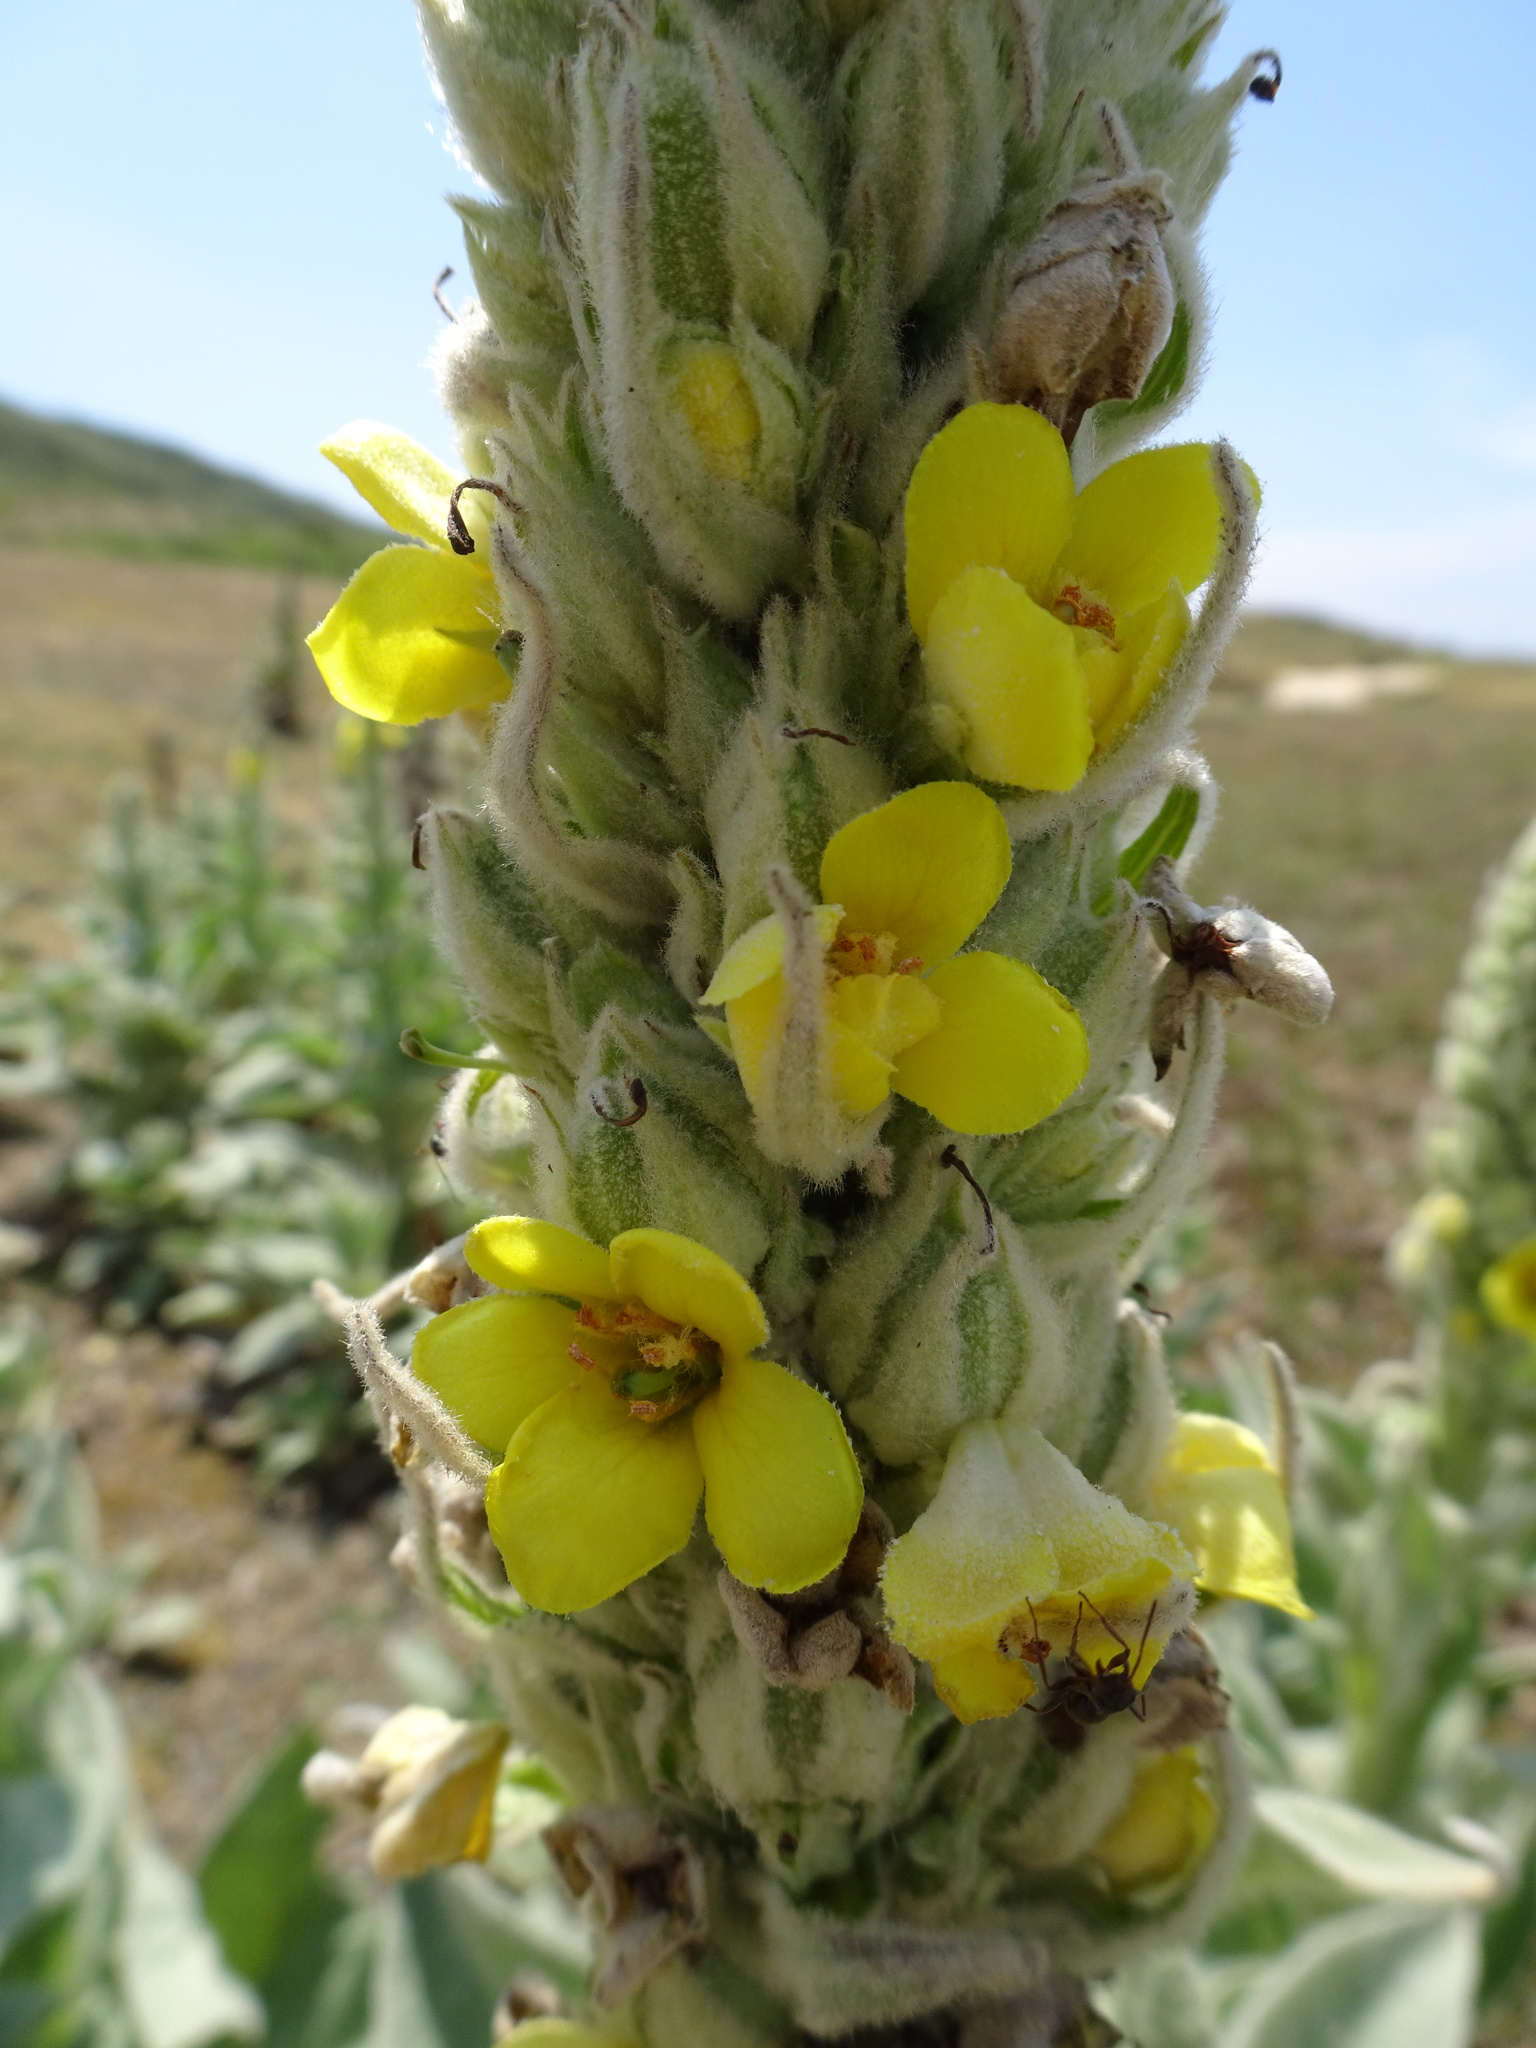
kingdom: Plantae
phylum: Tracheophyta
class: Magnoliopsida
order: Lamiales
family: Scrophulariaceae
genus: Verbascum
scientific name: Verbascum thapsus
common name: Common mullein
